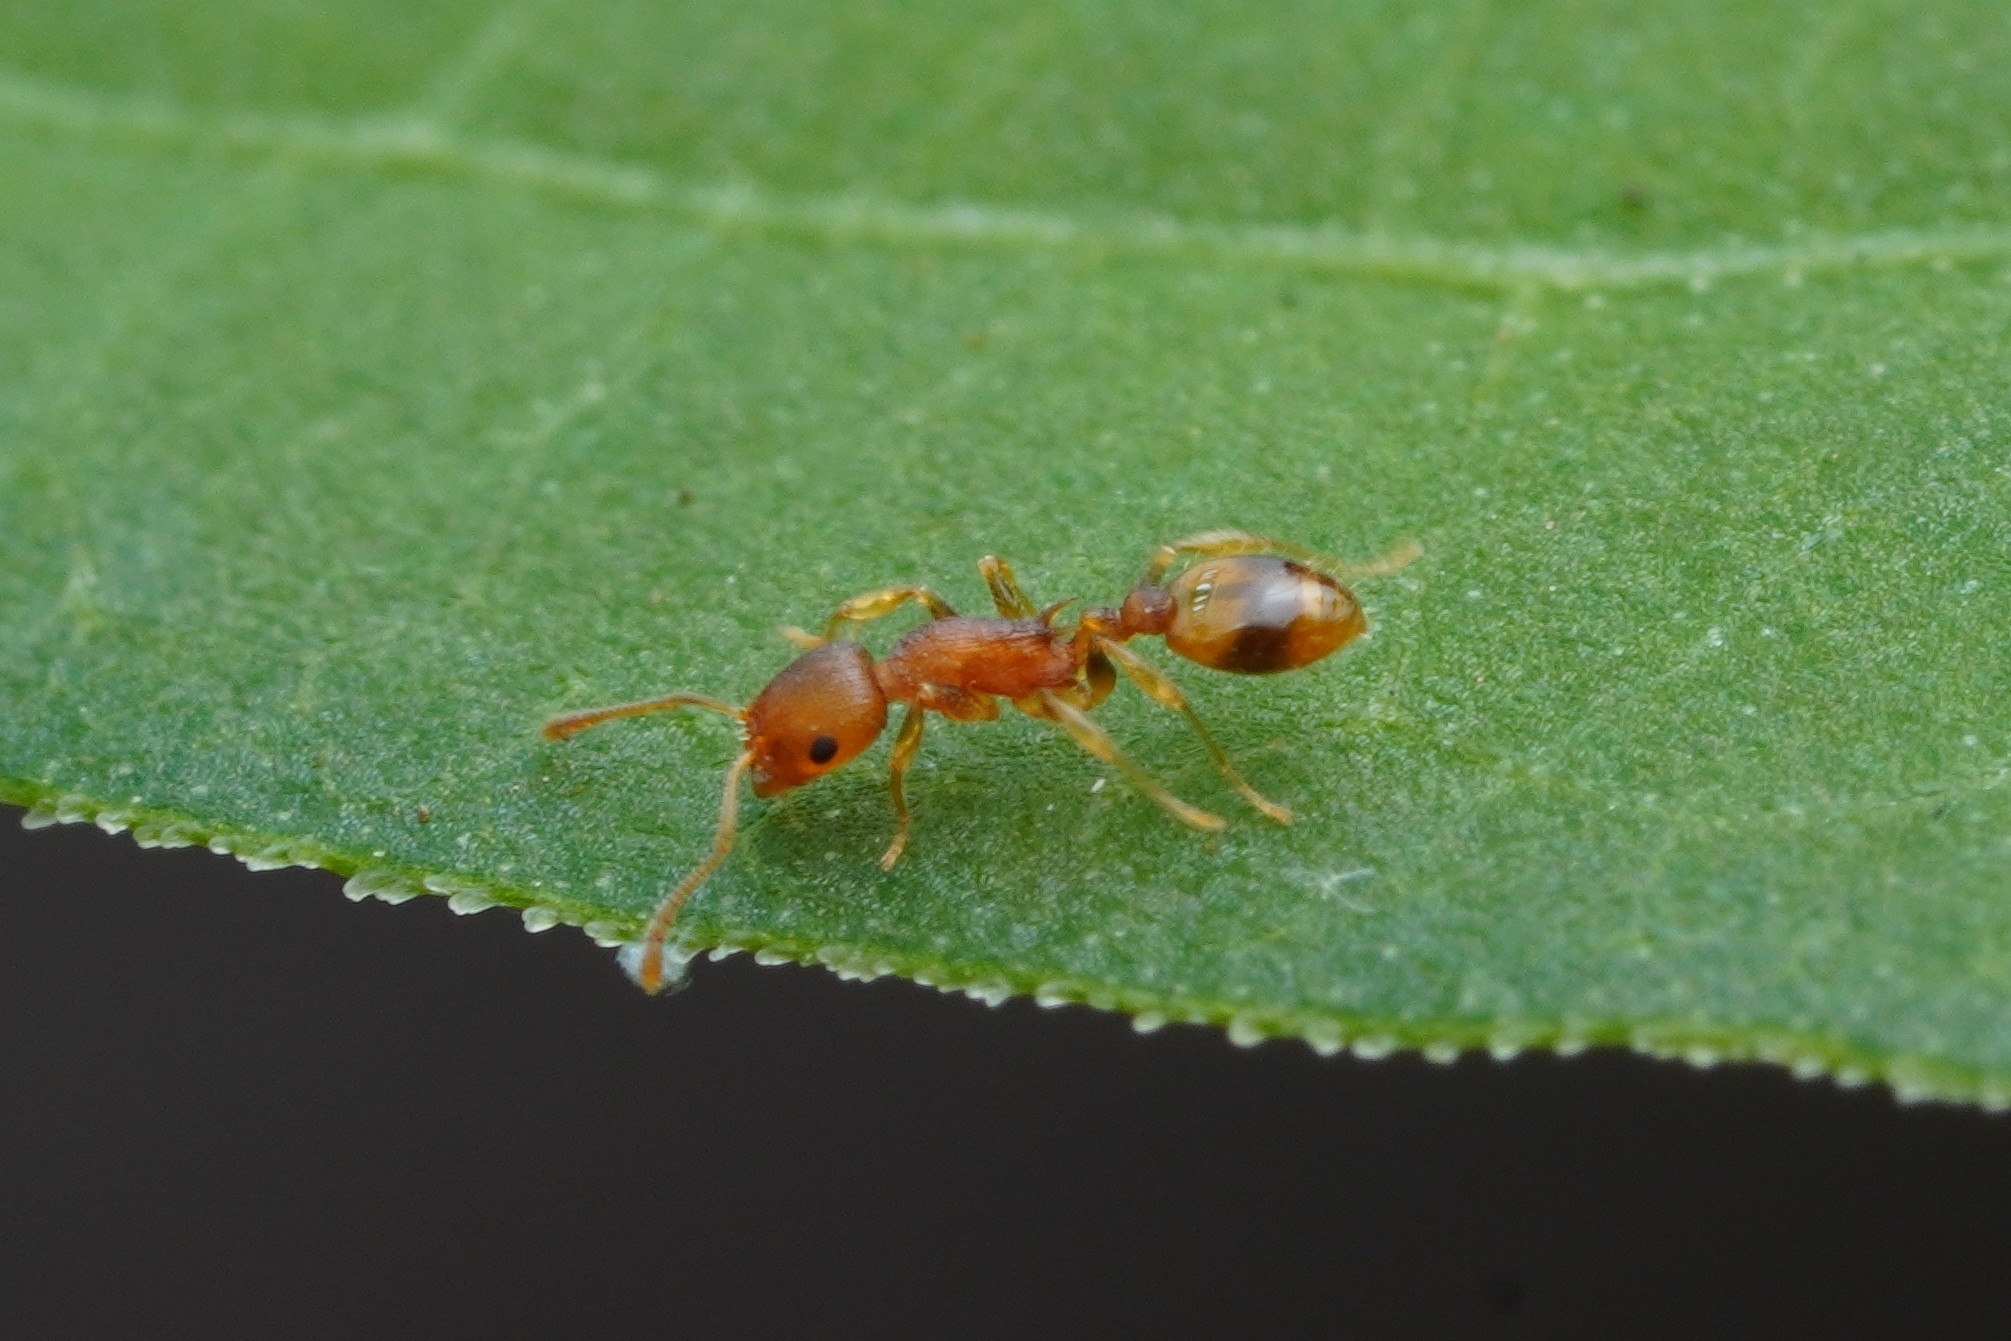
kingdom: Animalia
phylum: Arthropoda
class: Insecta
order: Hymenoptera
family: Formicidae
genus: Temnothorax
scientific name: Temnothorax curvispinosus
